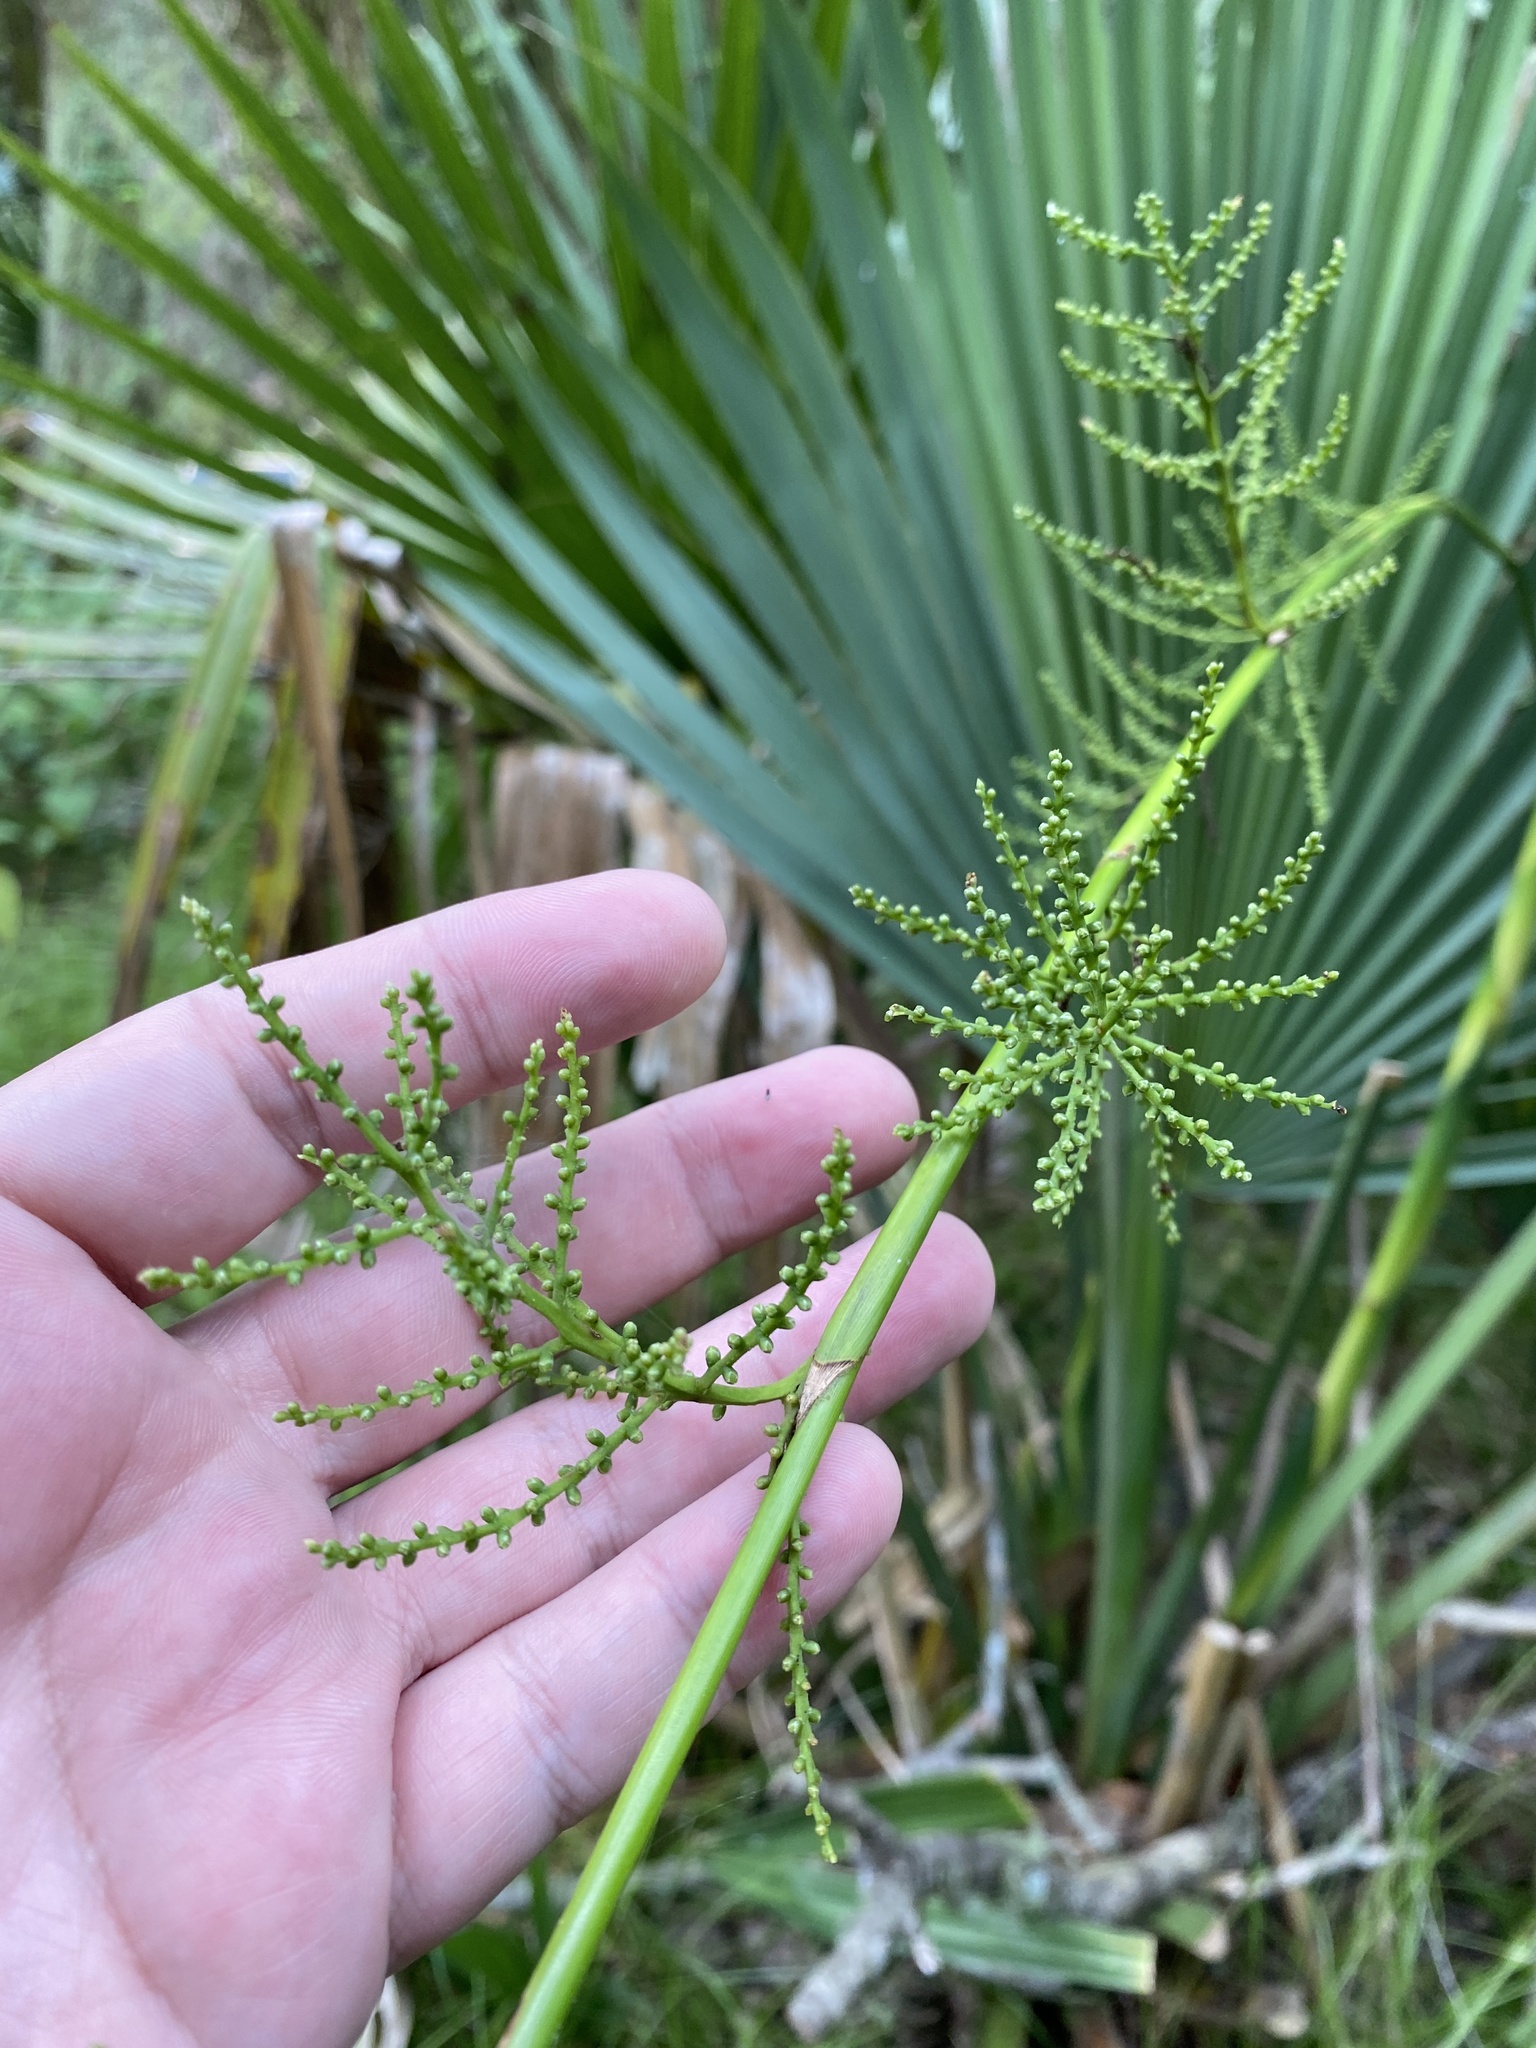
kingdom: Plantae
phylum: Tracheophyta
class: Liliopsida
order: Arecales
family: Arecaceae
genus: Sabal
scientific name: Sabal minor
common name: Dwarf palmetto
